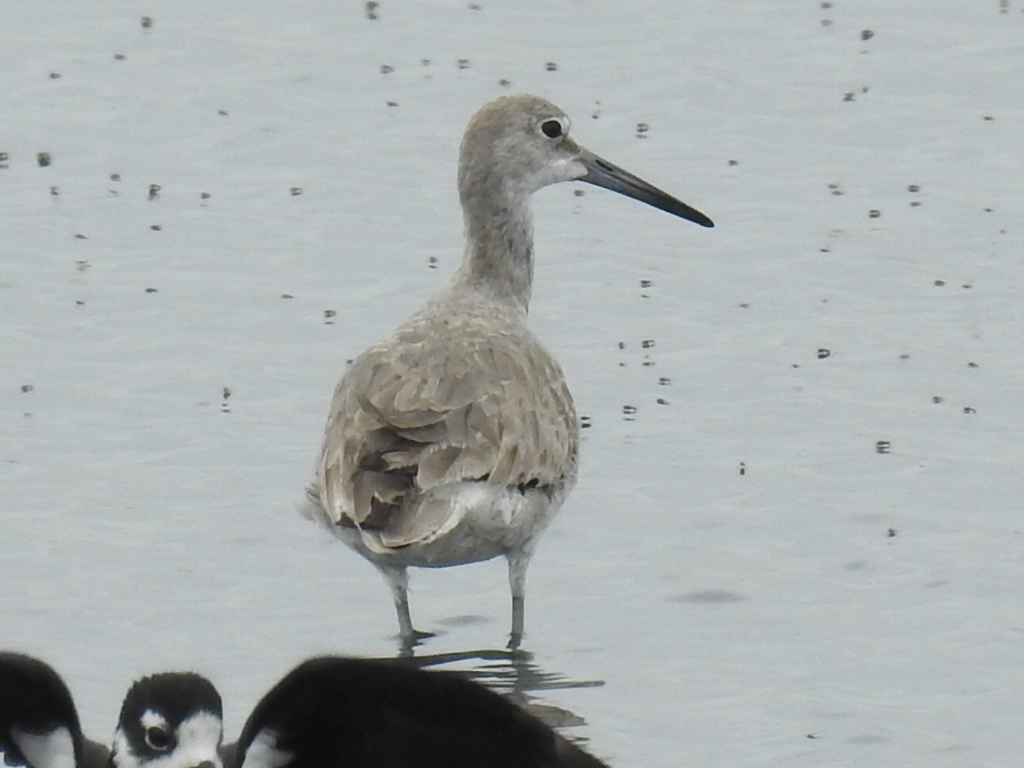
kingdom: Animalia
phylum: Chordata
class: Aves
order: Charadriiformes
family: Scolopacidae
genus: Tringa
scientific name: Tringa semipalmata
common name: Willet
